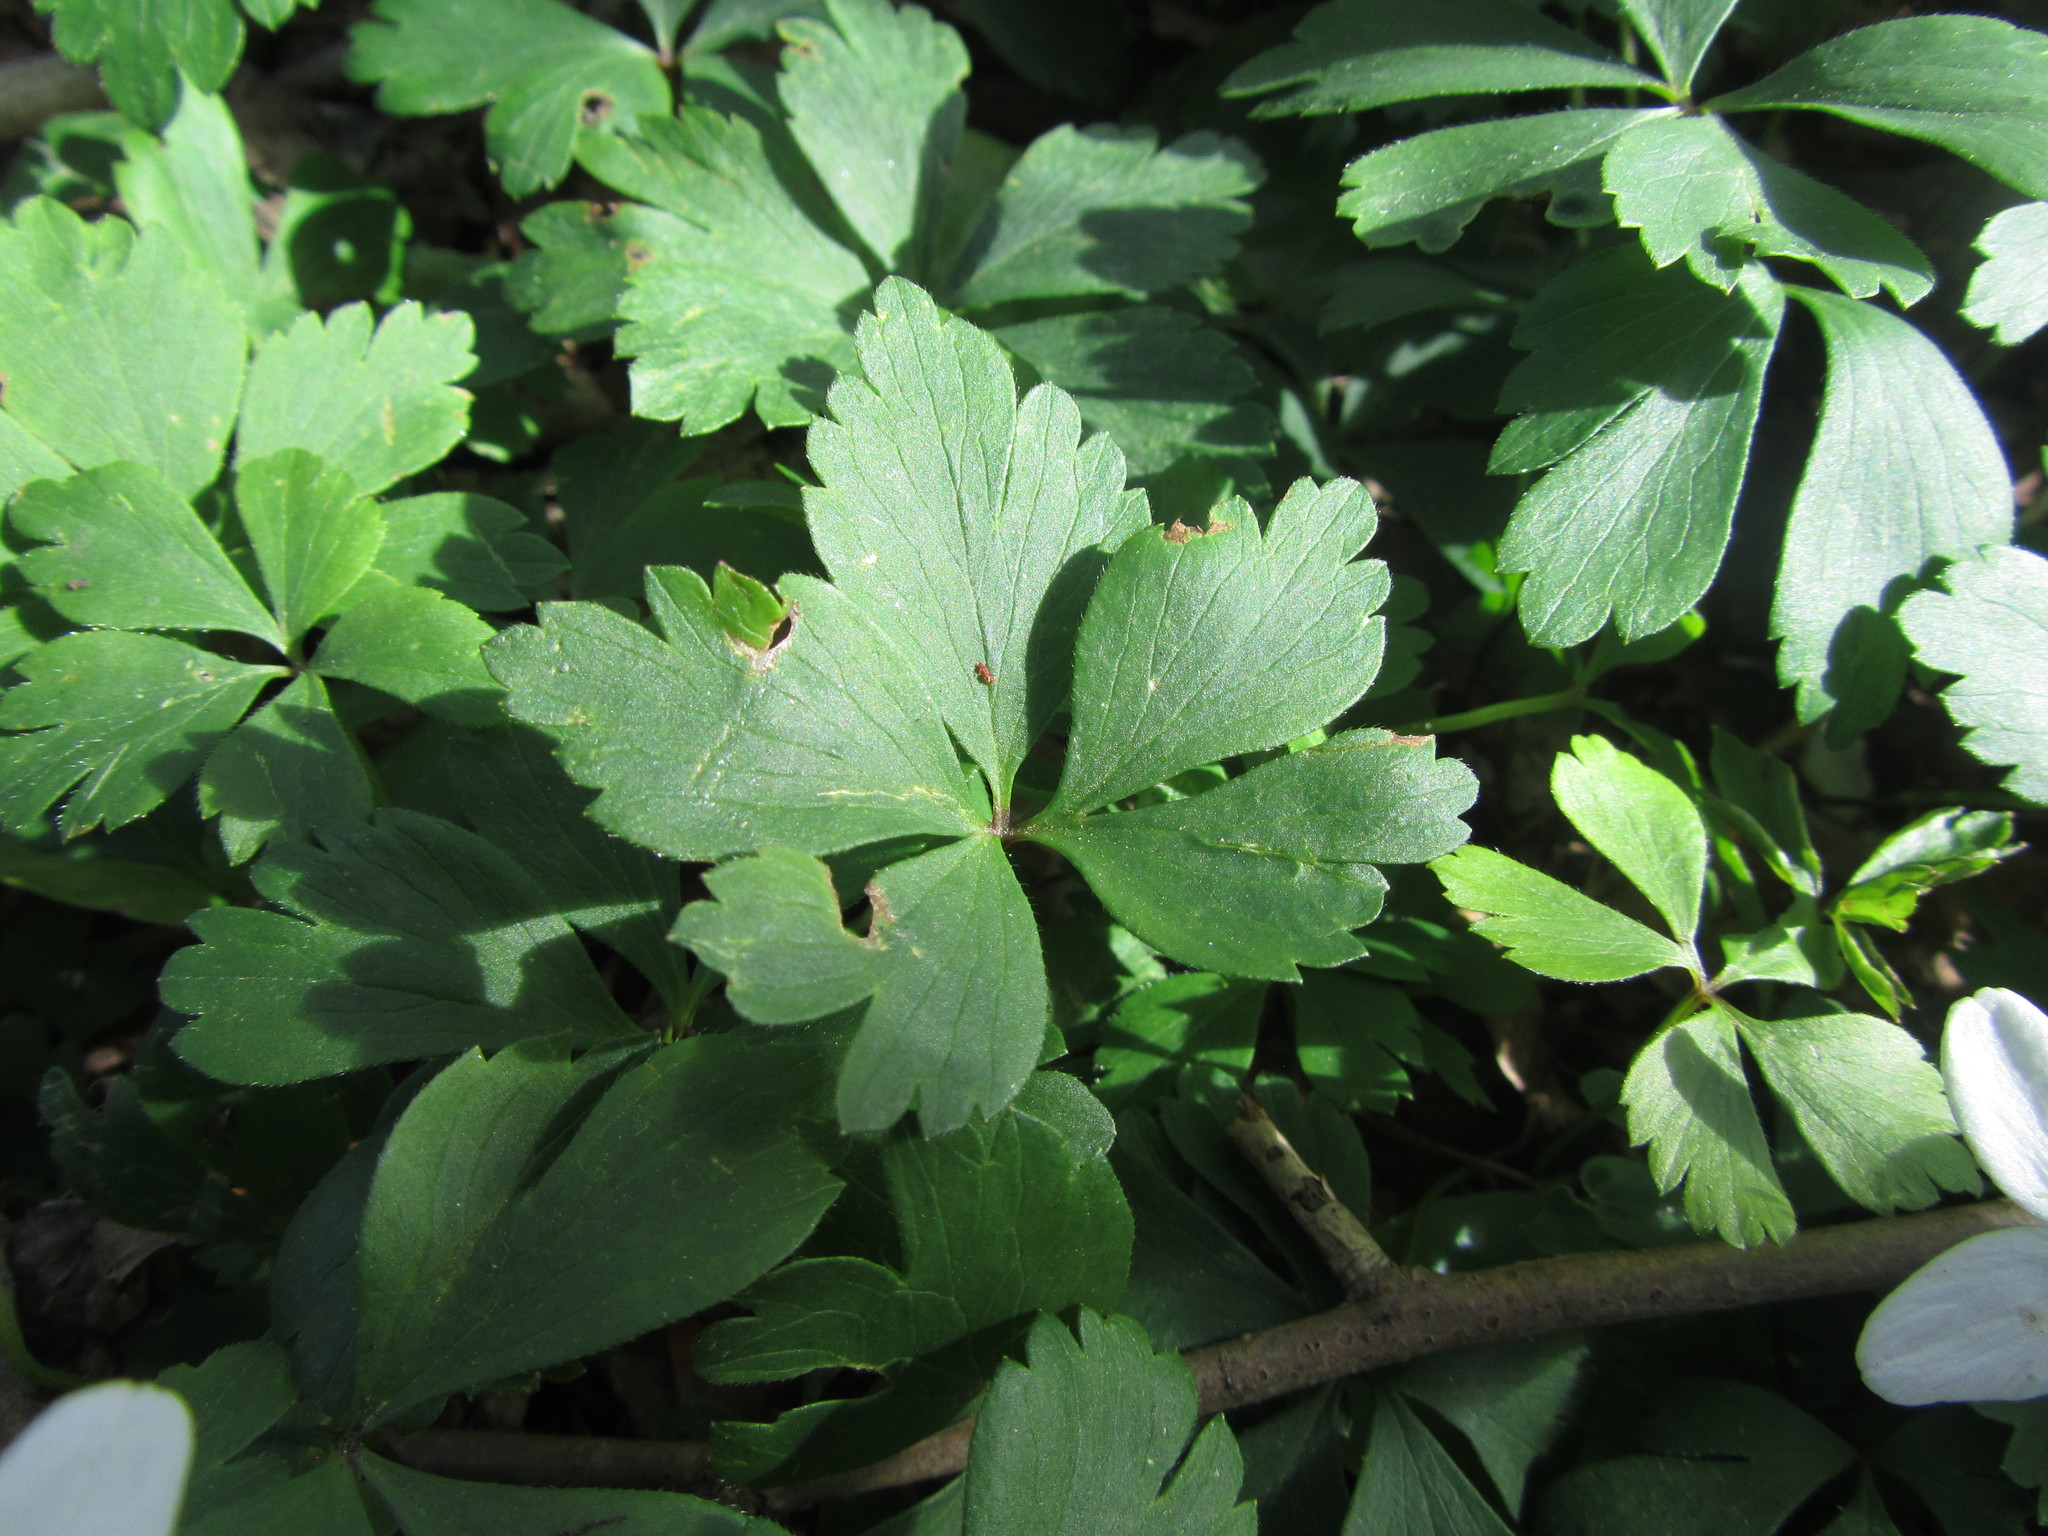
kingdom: Plantae
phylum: Tracheophyta
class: Magnoliopsida
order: Ranunculales
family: Ranunculaceae
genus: Anemone
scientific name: Anemone quinquefolia
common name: Wood anemone
